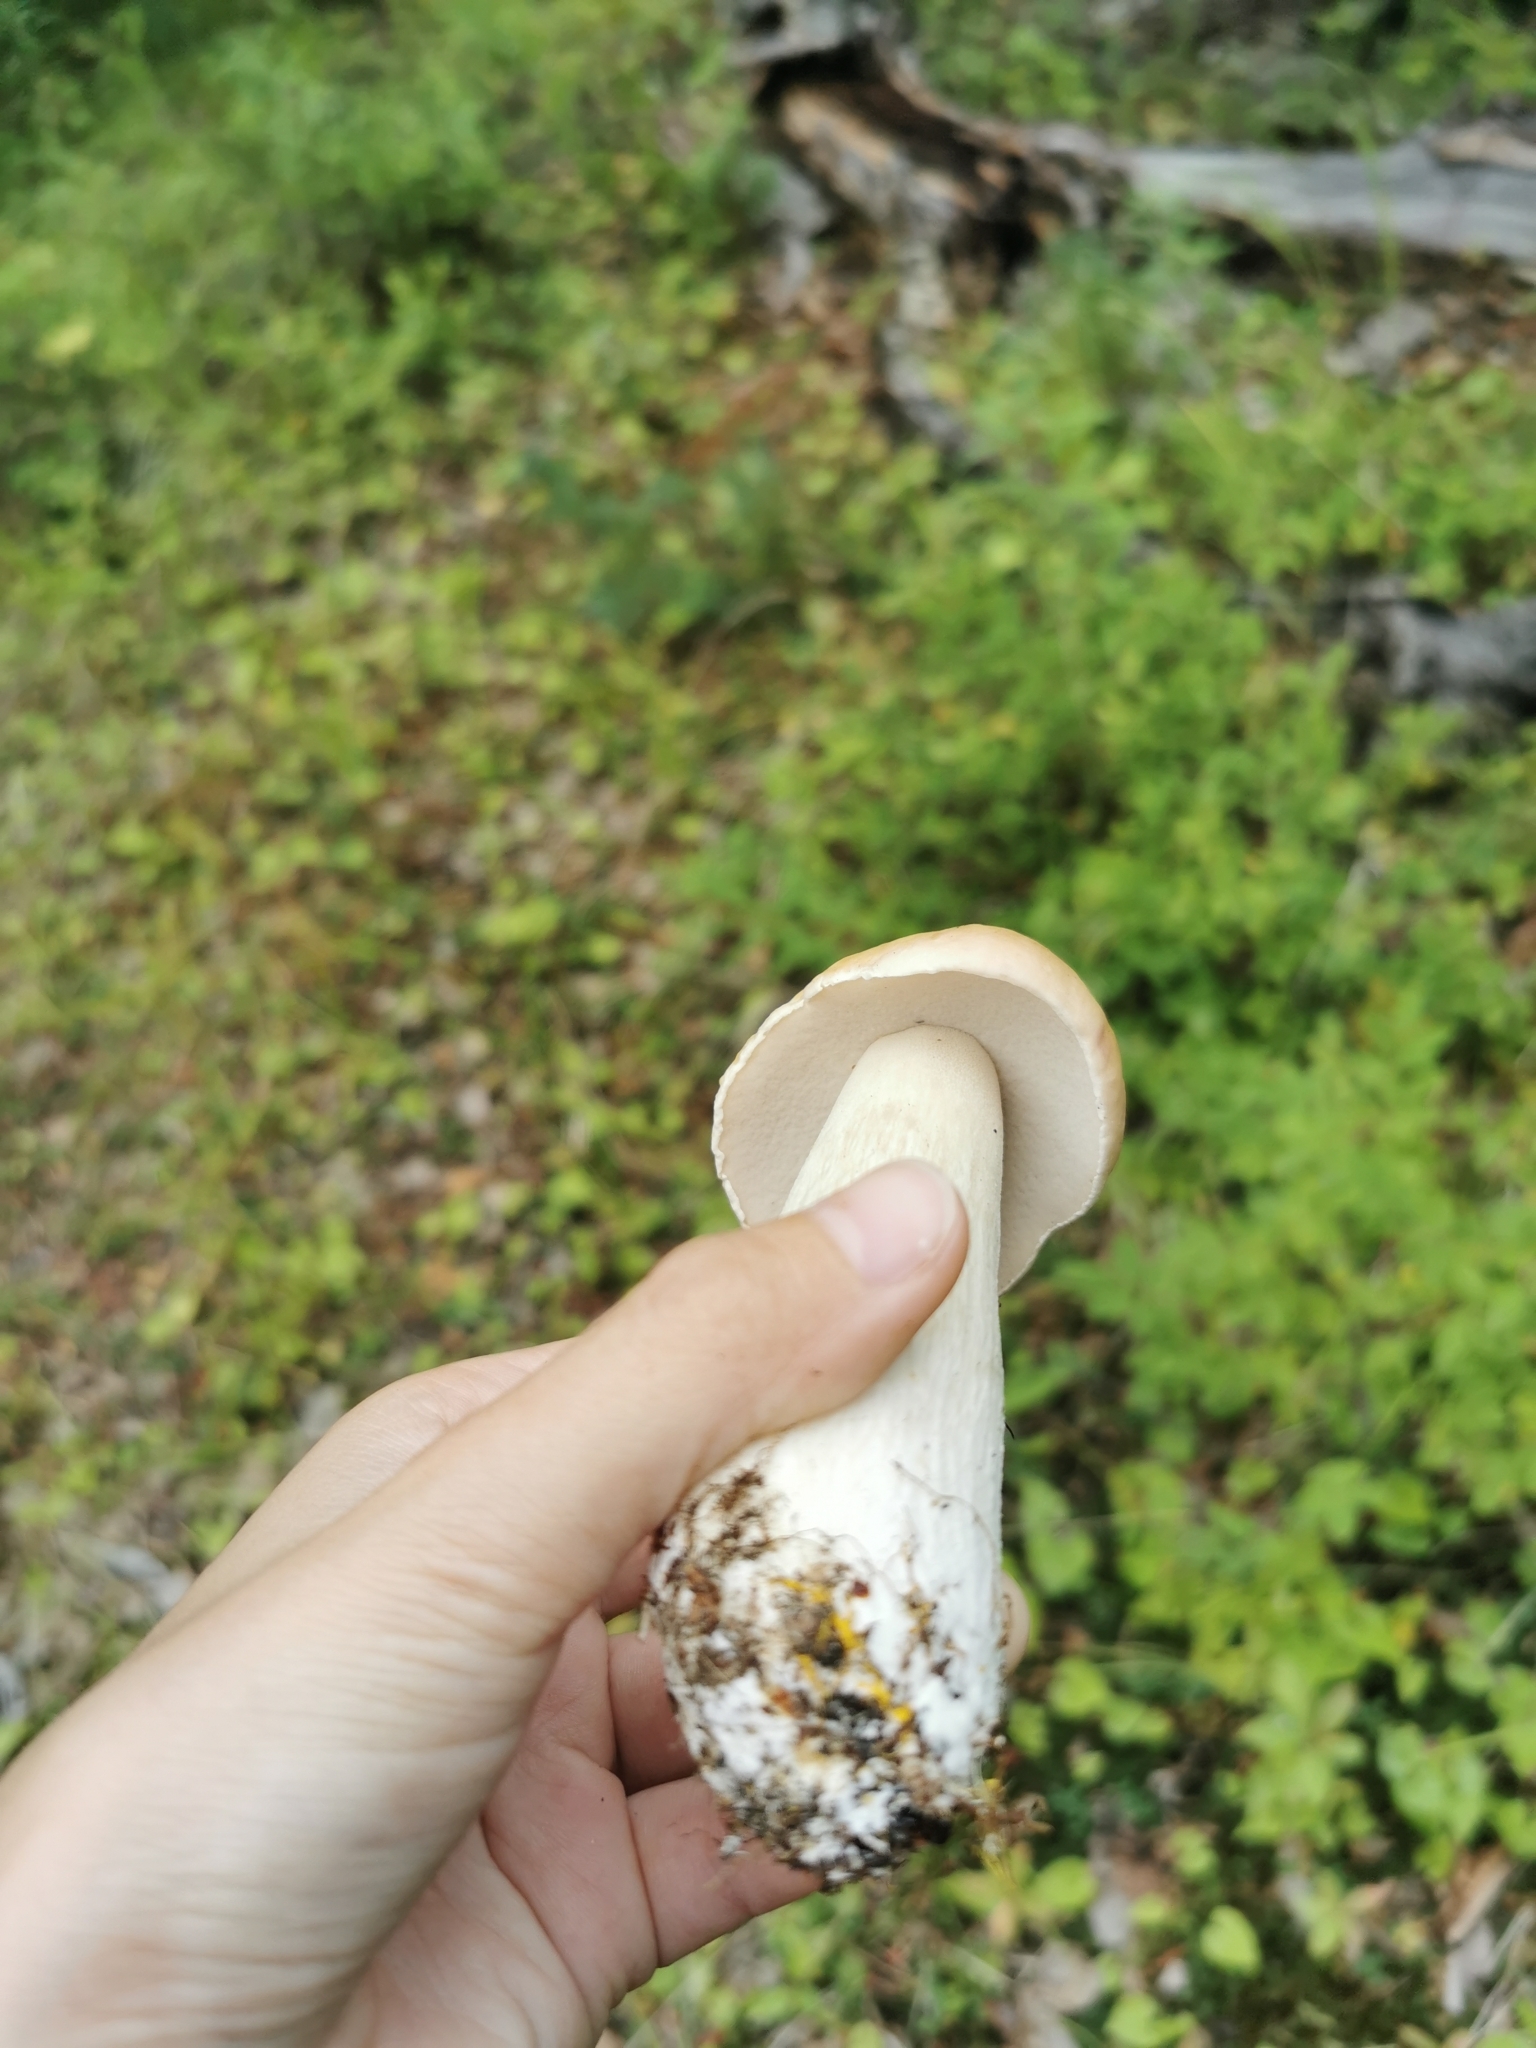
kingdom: Fungi
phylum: Basidiomycota
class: Agaricomycetes
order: Boletales
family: Boletaceae
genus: Boletus
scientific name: Boletus edulis
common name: Cep
